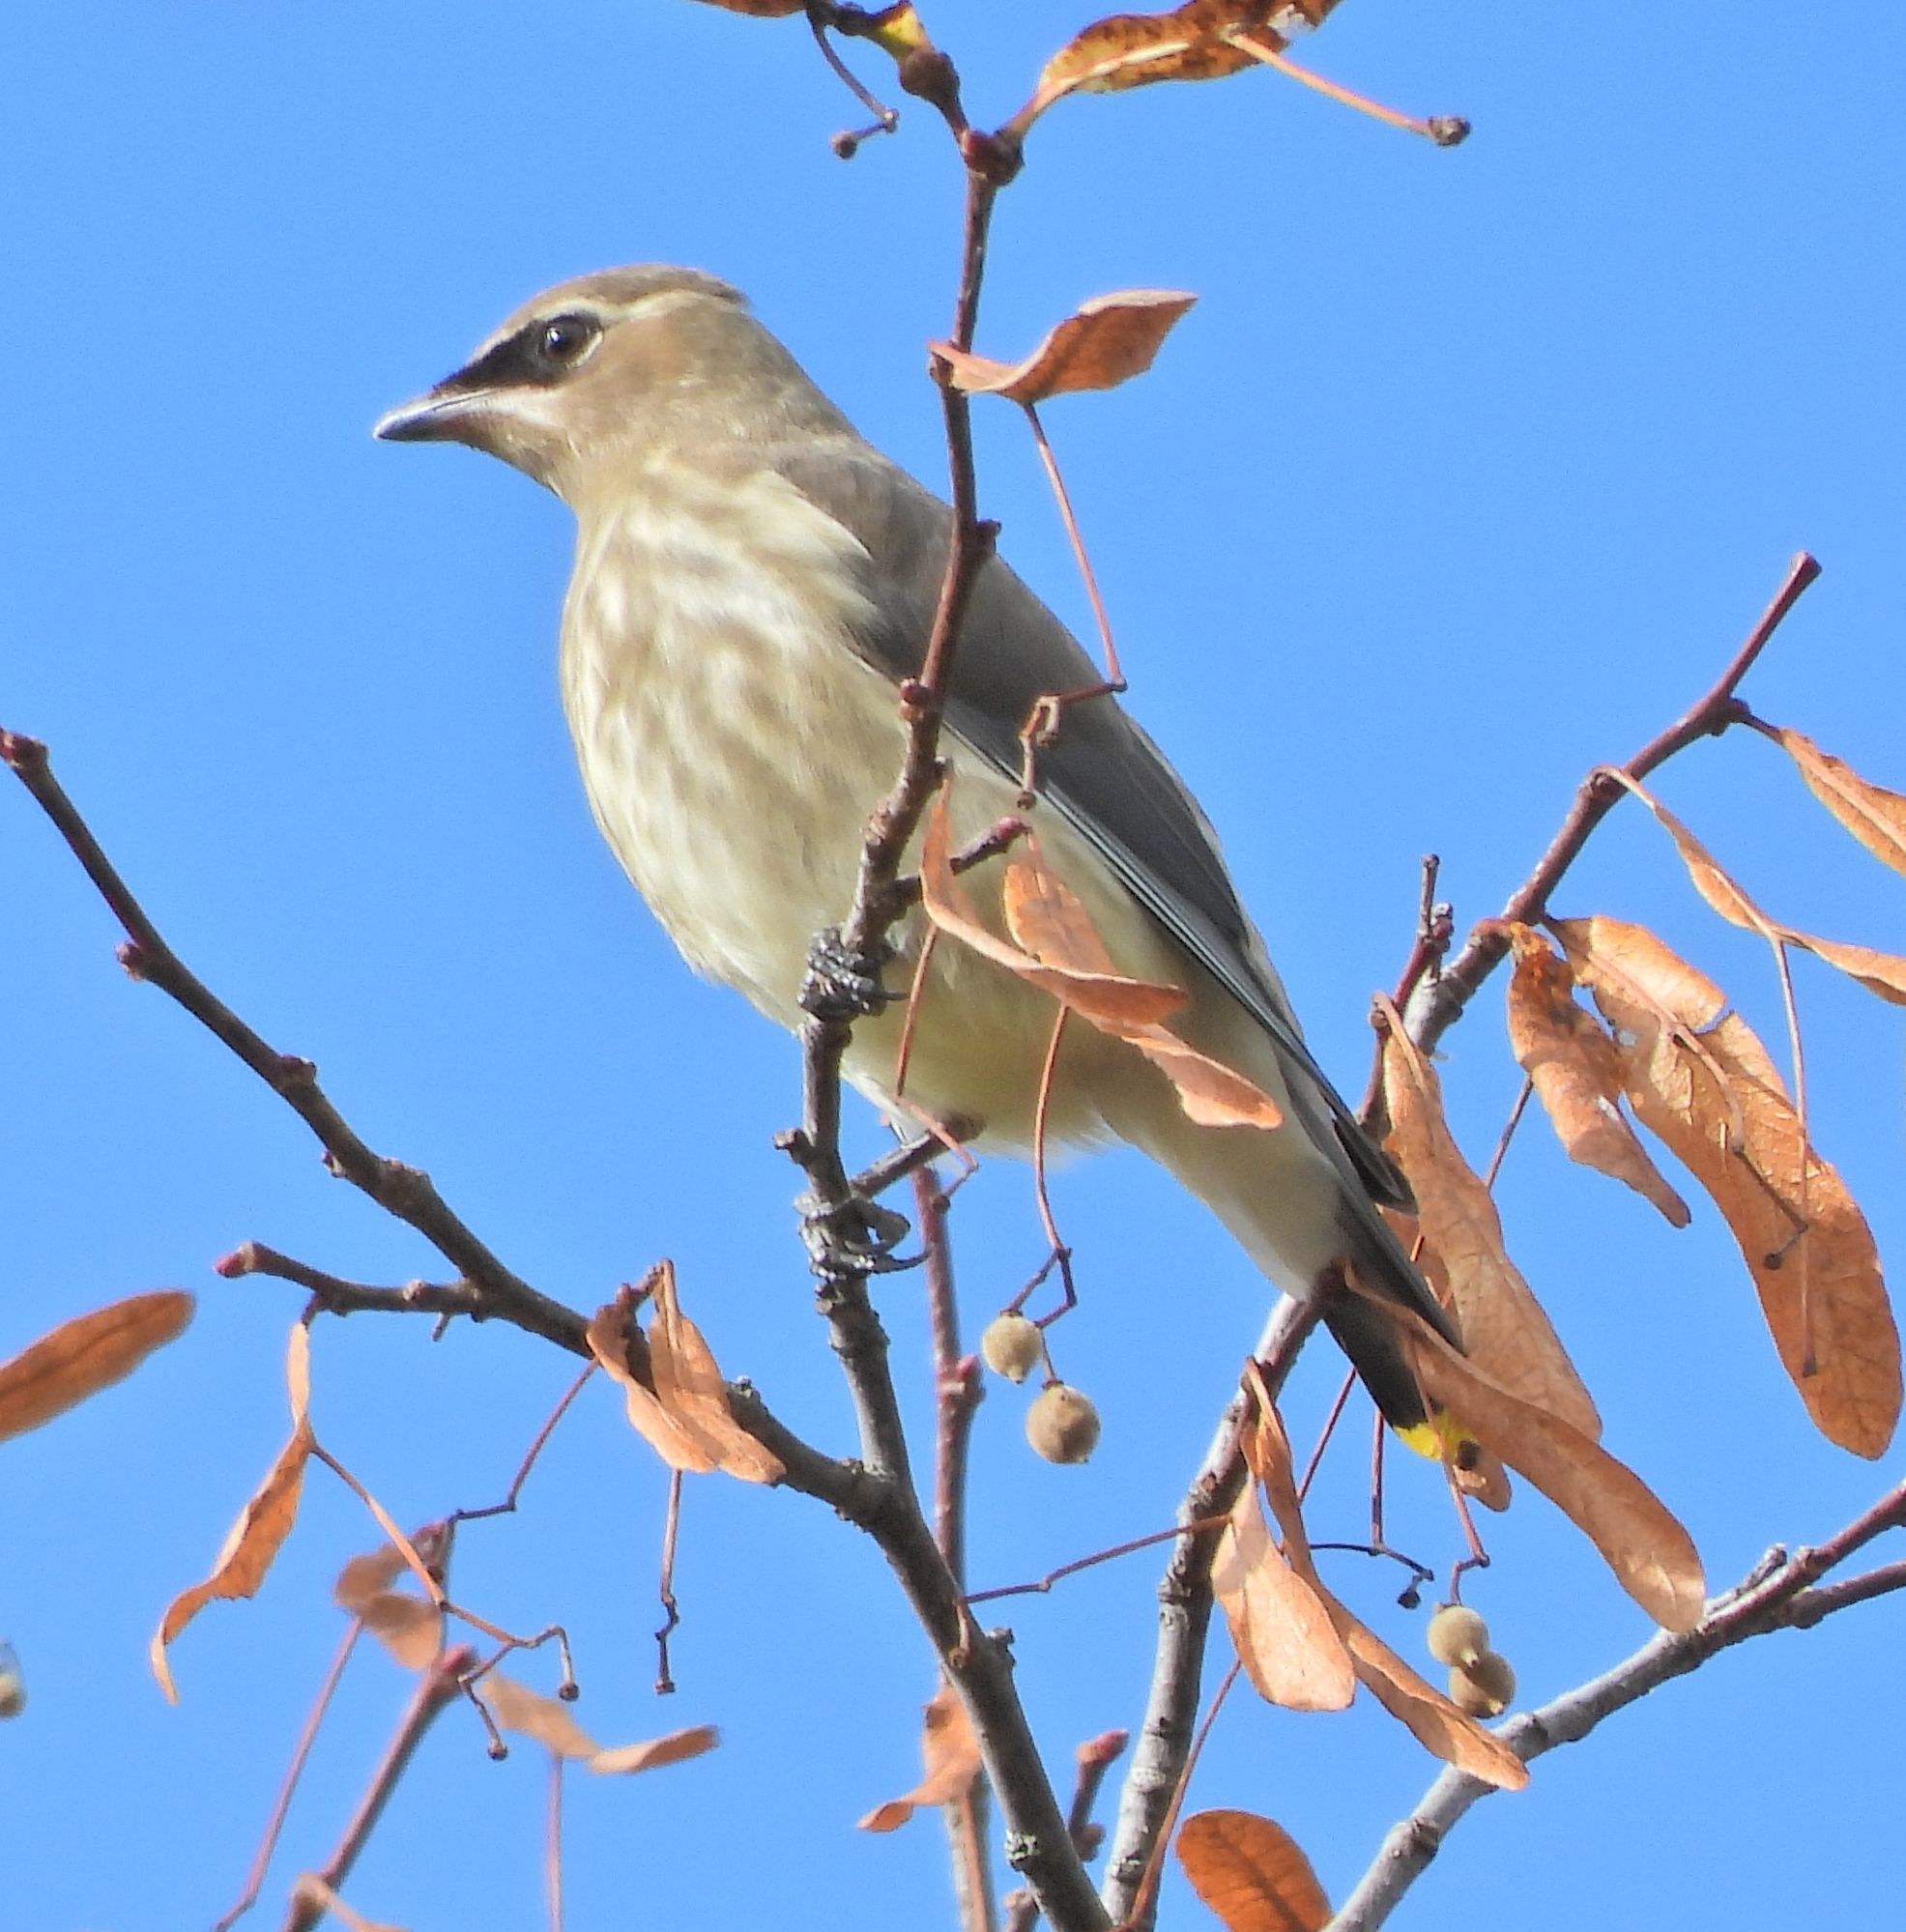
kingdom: Animalia
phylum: Chordata
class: Aves
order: Passeriformes
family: Bombycillidae
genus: Bombycilla
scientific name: Bombycilla cedrorum
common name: Cedar waxwing
